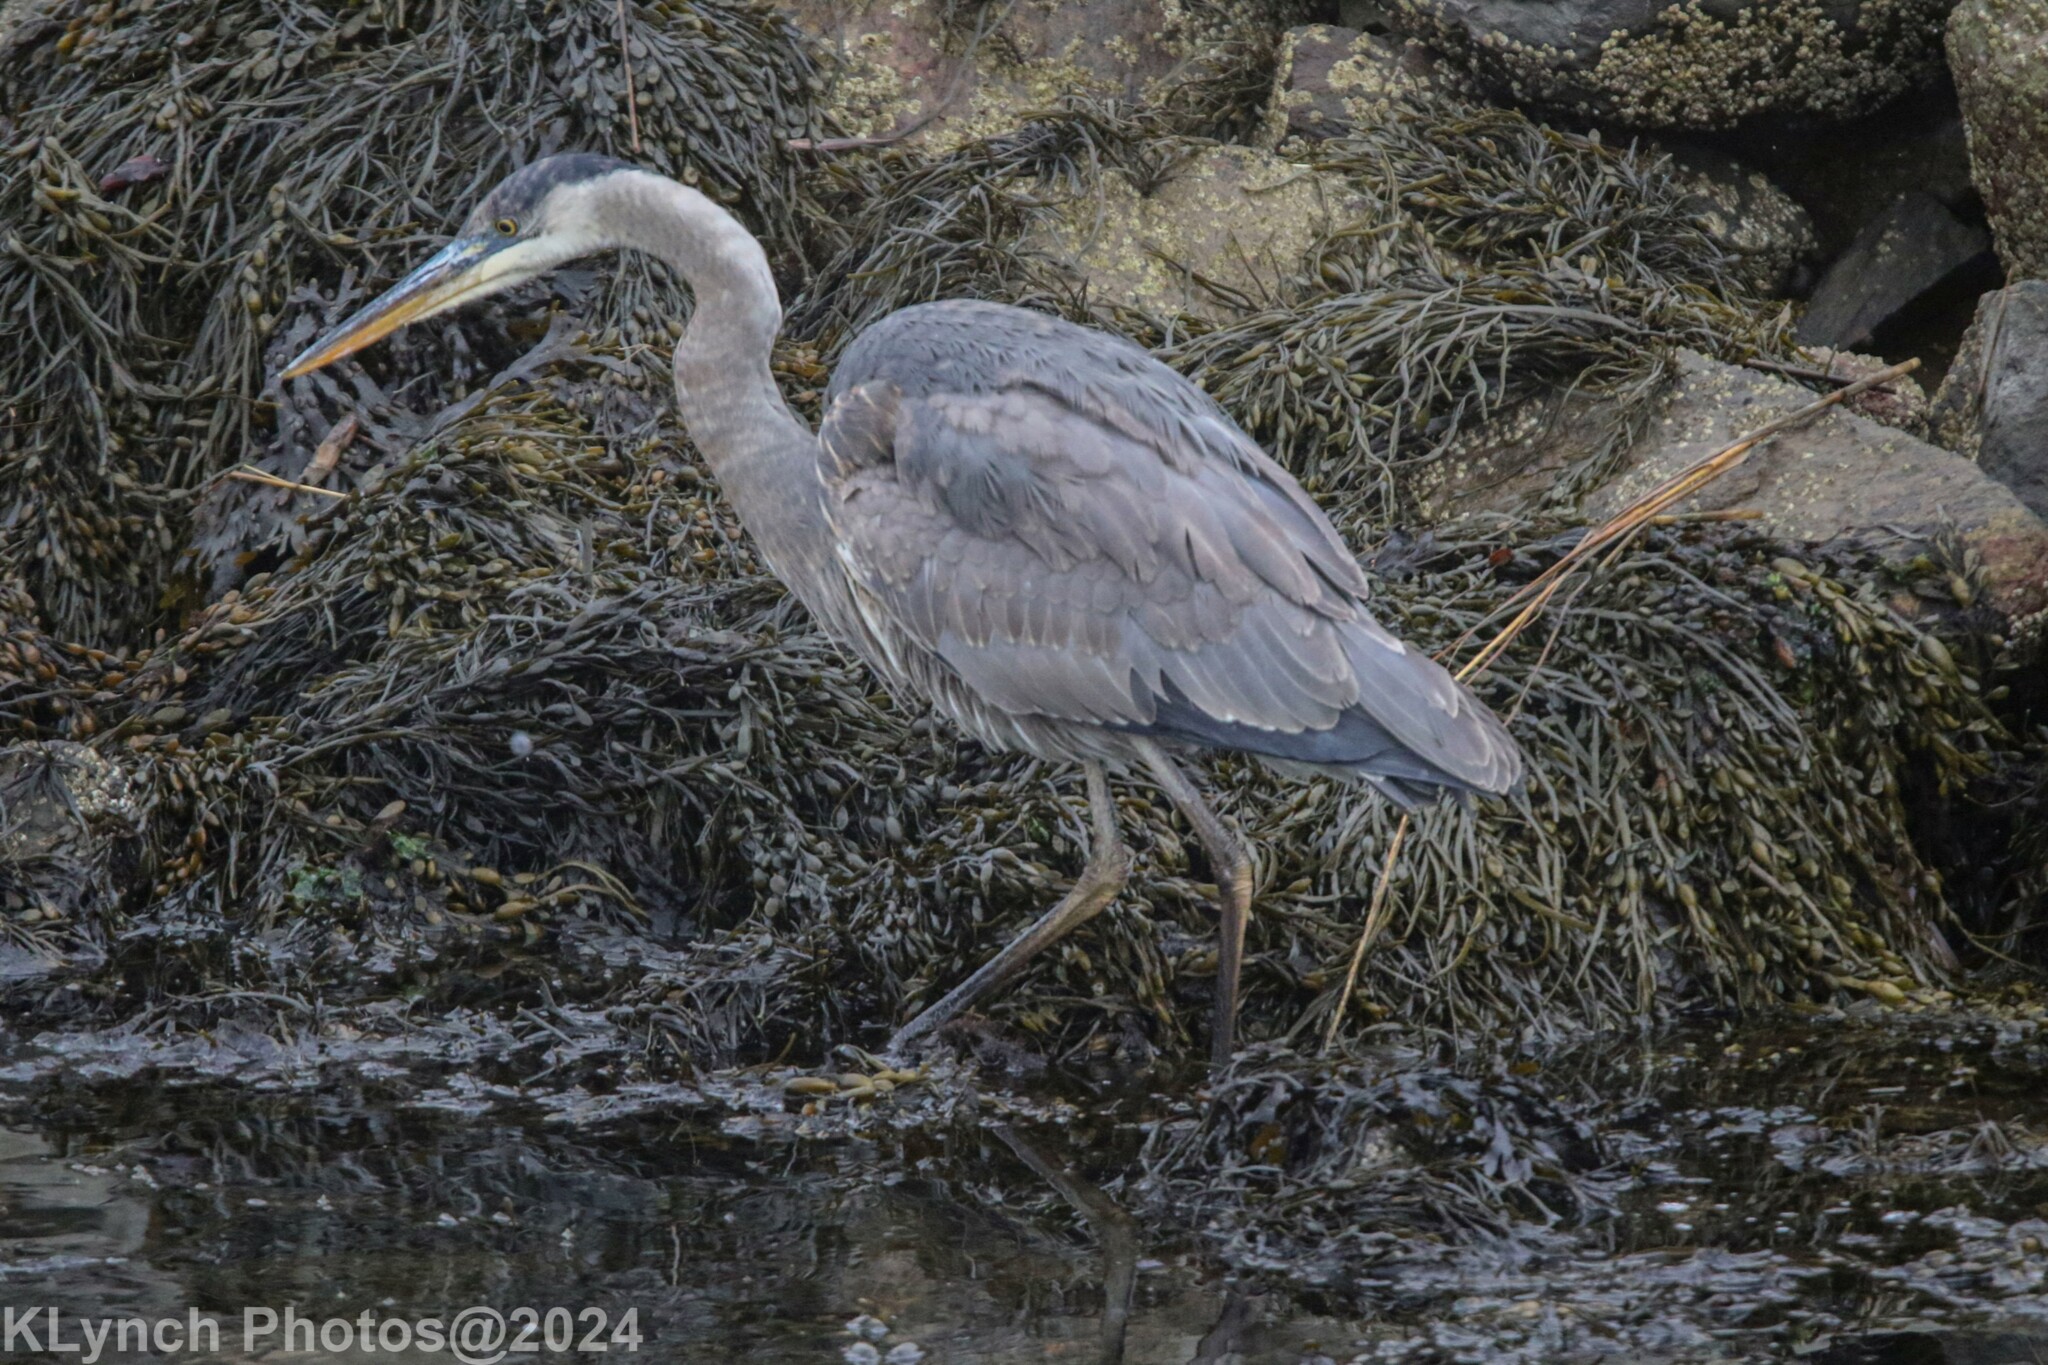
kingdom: Animalia
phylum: Chordata
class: Aves
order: Pelecaniformes
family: Ardeidae
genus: Ardea
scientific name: Ardea herodias
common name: Great blue heron
